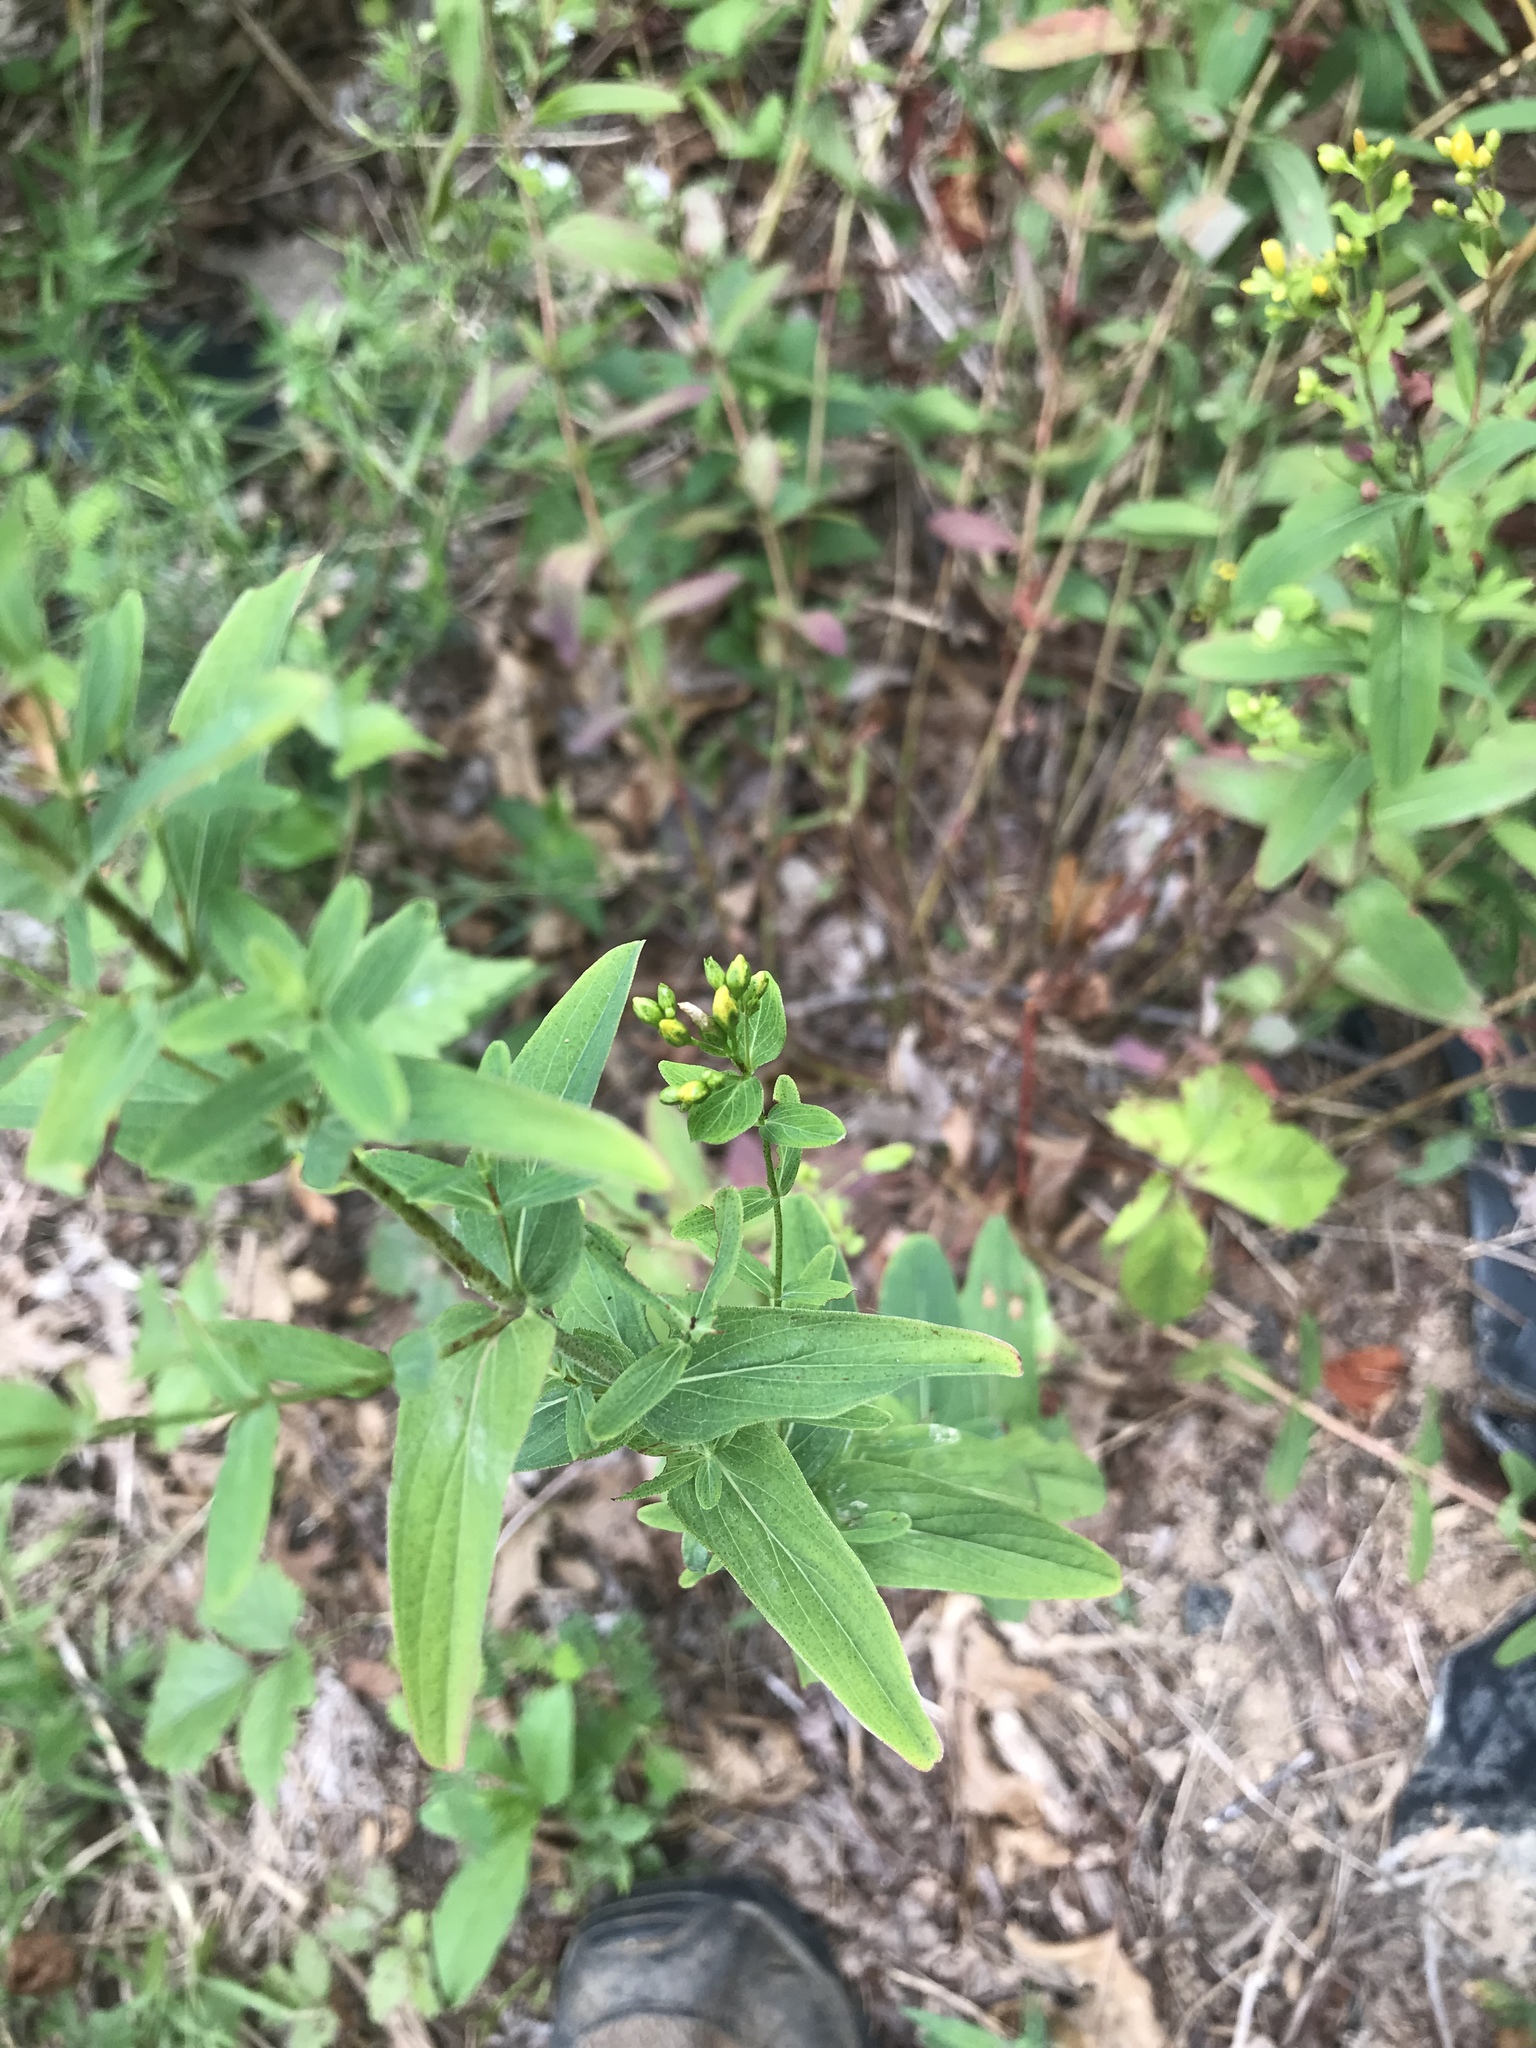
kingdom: Plantae
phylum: Tracheophyta
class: Magnoliopsida
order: Malpighiales
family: Hypericaceae
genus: Hypericum
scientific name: Hypericum punctatum
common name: Spotted st. john's-wort
